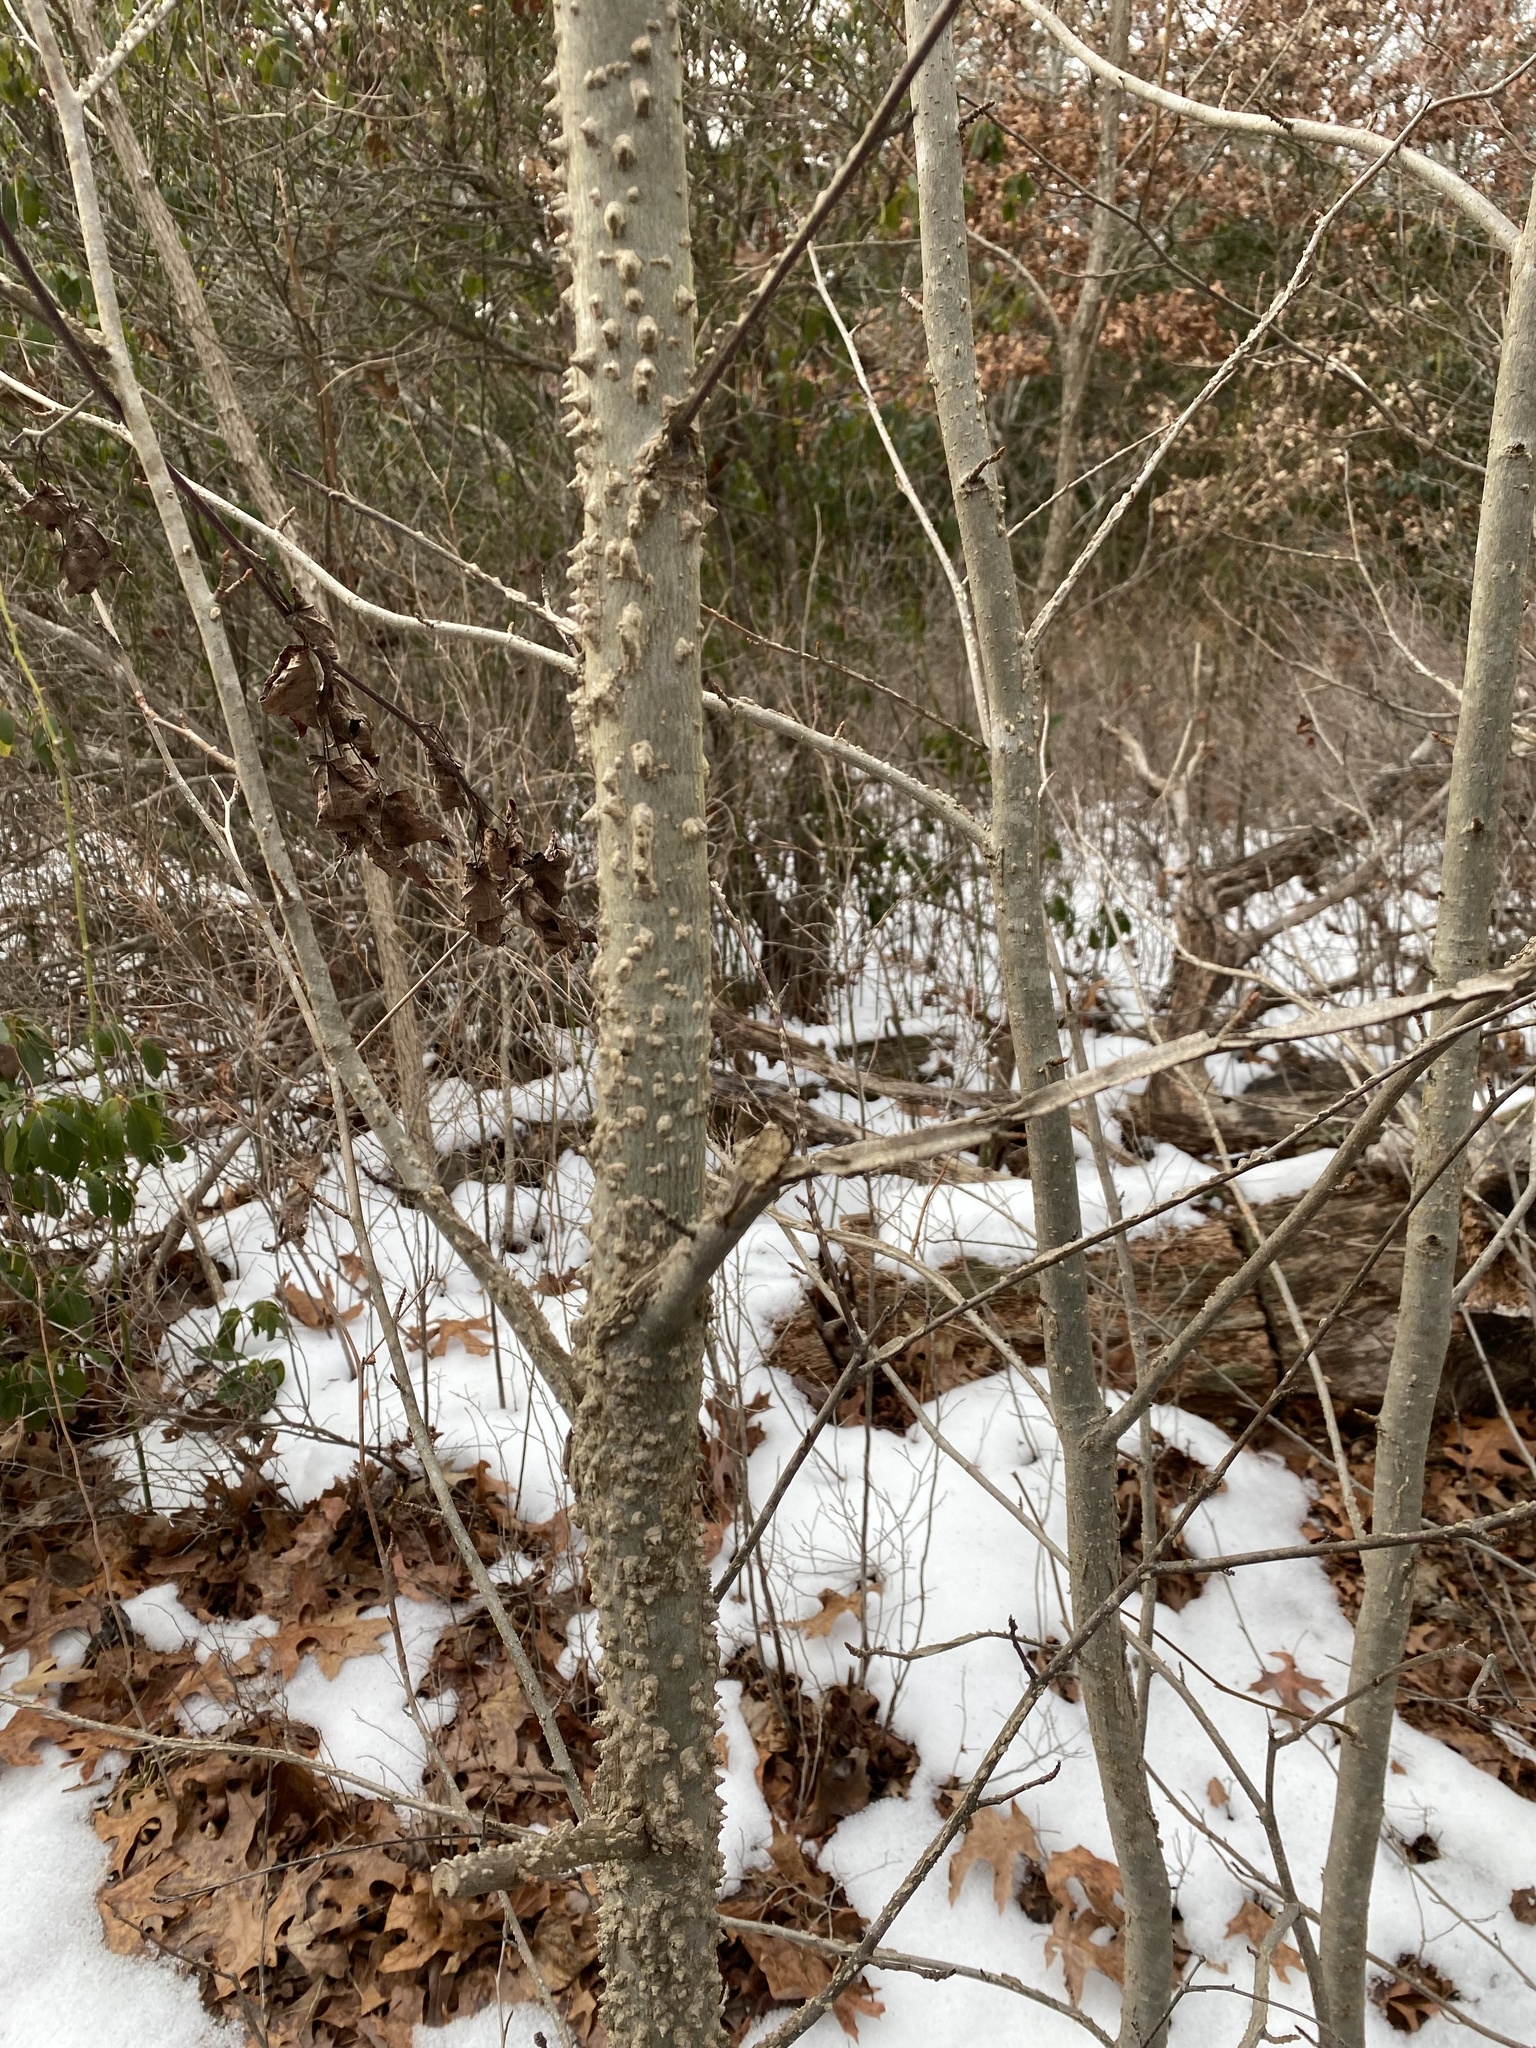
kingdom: Plantae
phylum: Tracheophyta
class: Magnoliopsida
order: Saxifragales
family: Altingiaceae
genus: Liquidambar
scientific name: Liquidambar styraciflua
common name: Sweet gum
